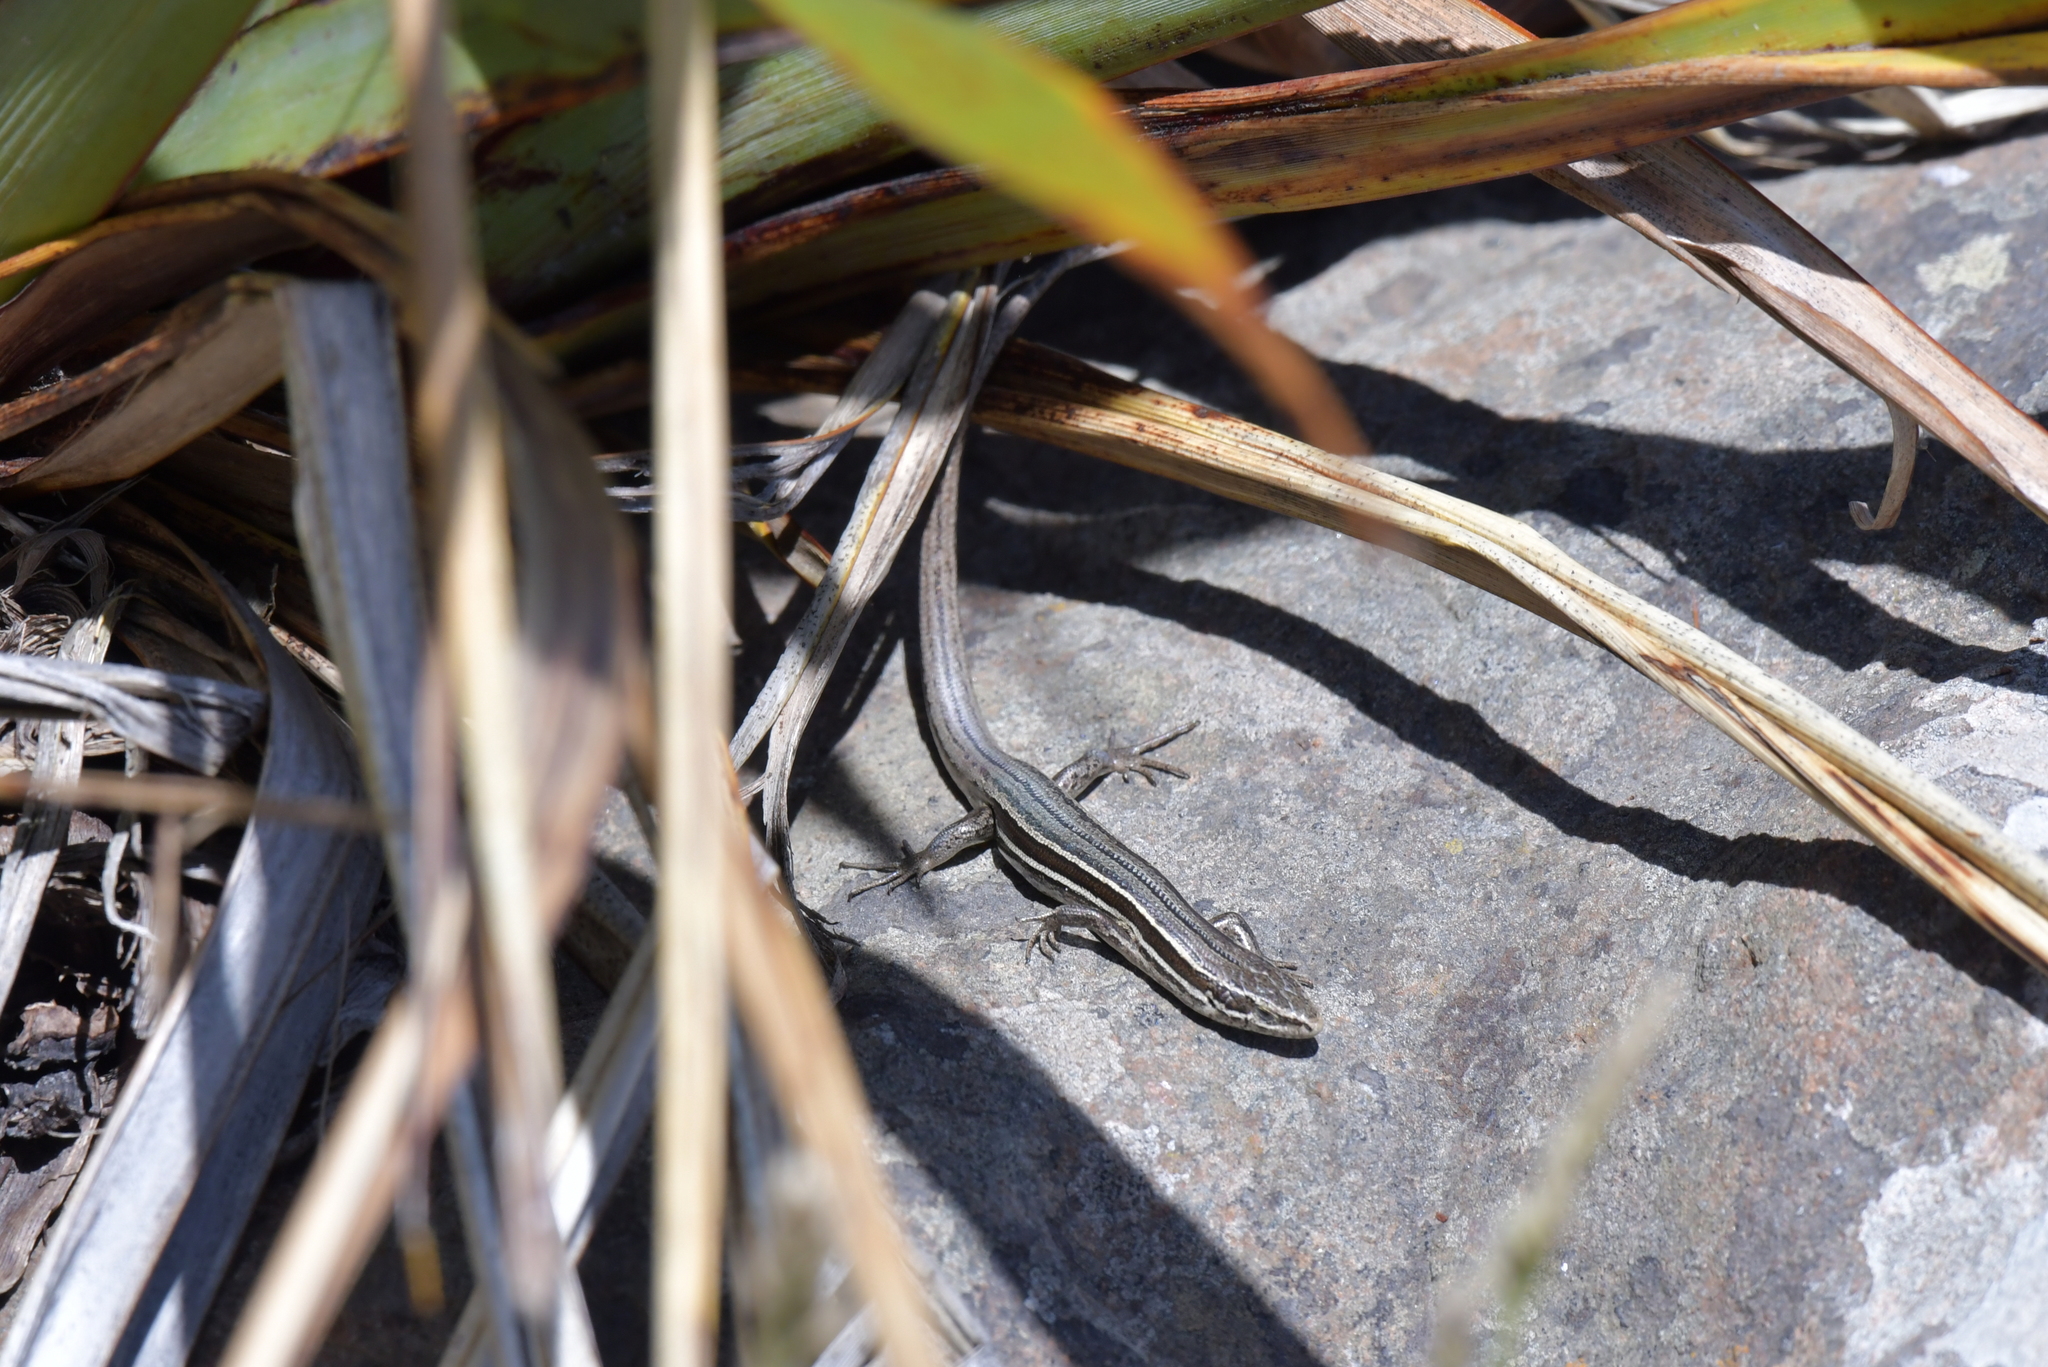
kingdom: Animalia
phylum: Chordata
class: Squamata
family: Scincidae
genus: Oligosoma
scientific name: Oligosoma maccanni
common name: Mccann’s skink
